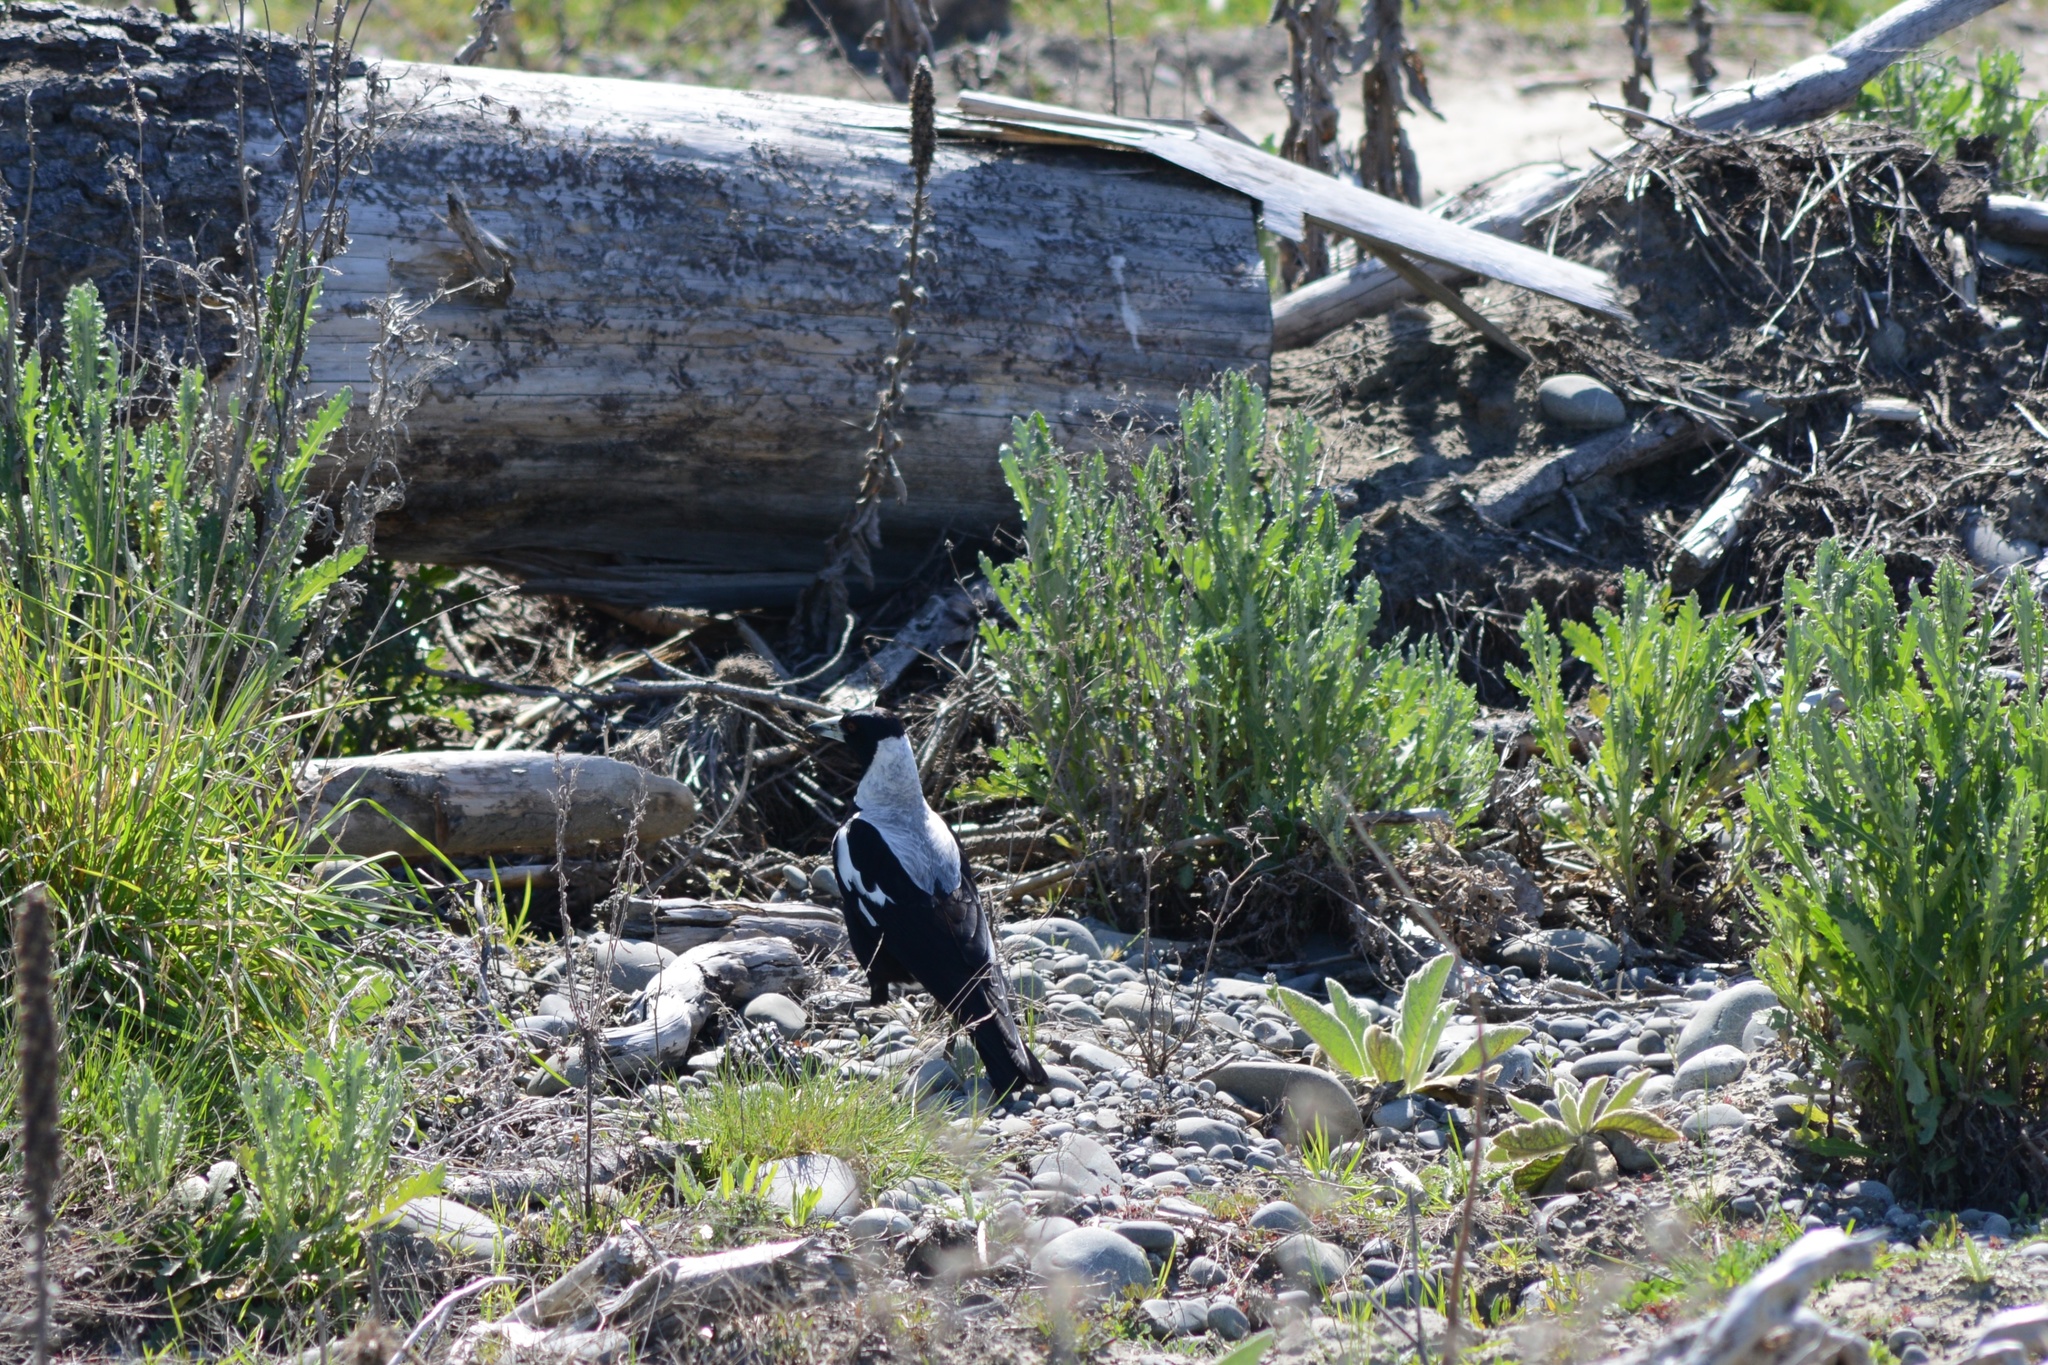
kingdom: Animalia
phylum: Chordata
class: Aves
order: Passeriformes
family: Cracticidae
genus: Gymnorhina
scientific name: Gymnorhina tibicen
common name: Australian magpie
